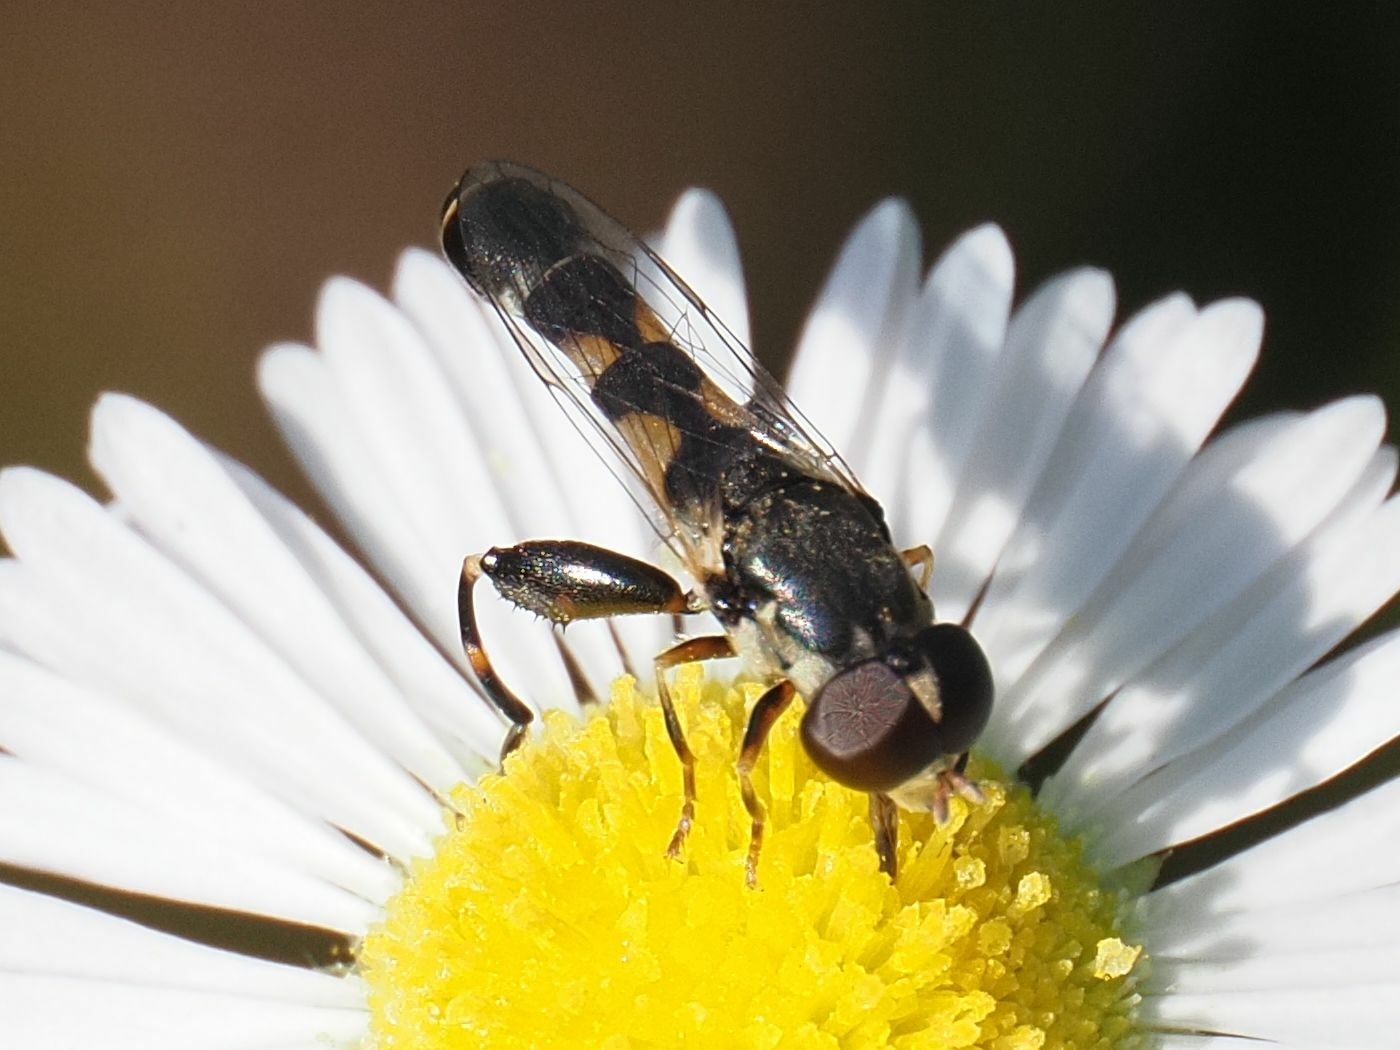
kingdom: Animalia
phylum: Arthropoda
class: Insecta
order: Diptera
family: Syrphidae
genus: Syritta
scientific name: Syritta pipiens
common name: Hover fly
